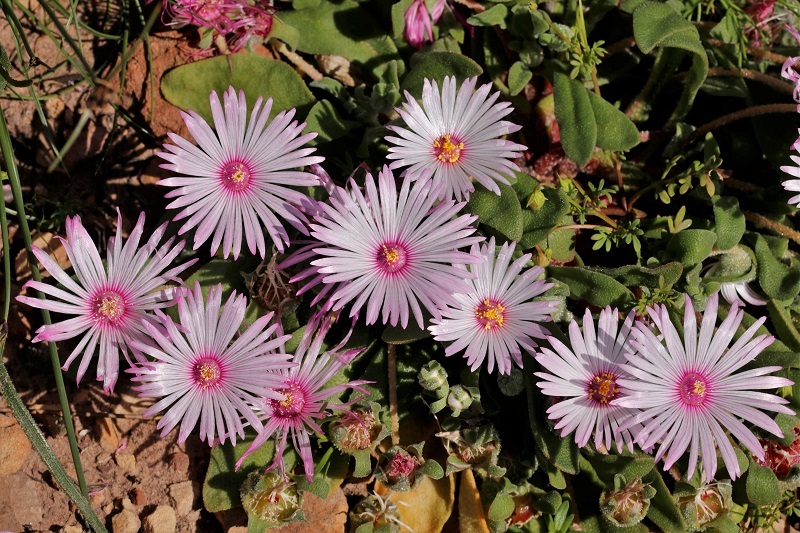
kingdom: Plantae
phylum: Tracheophyta
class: Magnoliopsida
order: Caryophyllales
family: Aizoaceae
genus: Cleretum
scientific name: Cleretum bellidiforme
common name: Livingstone daisy
